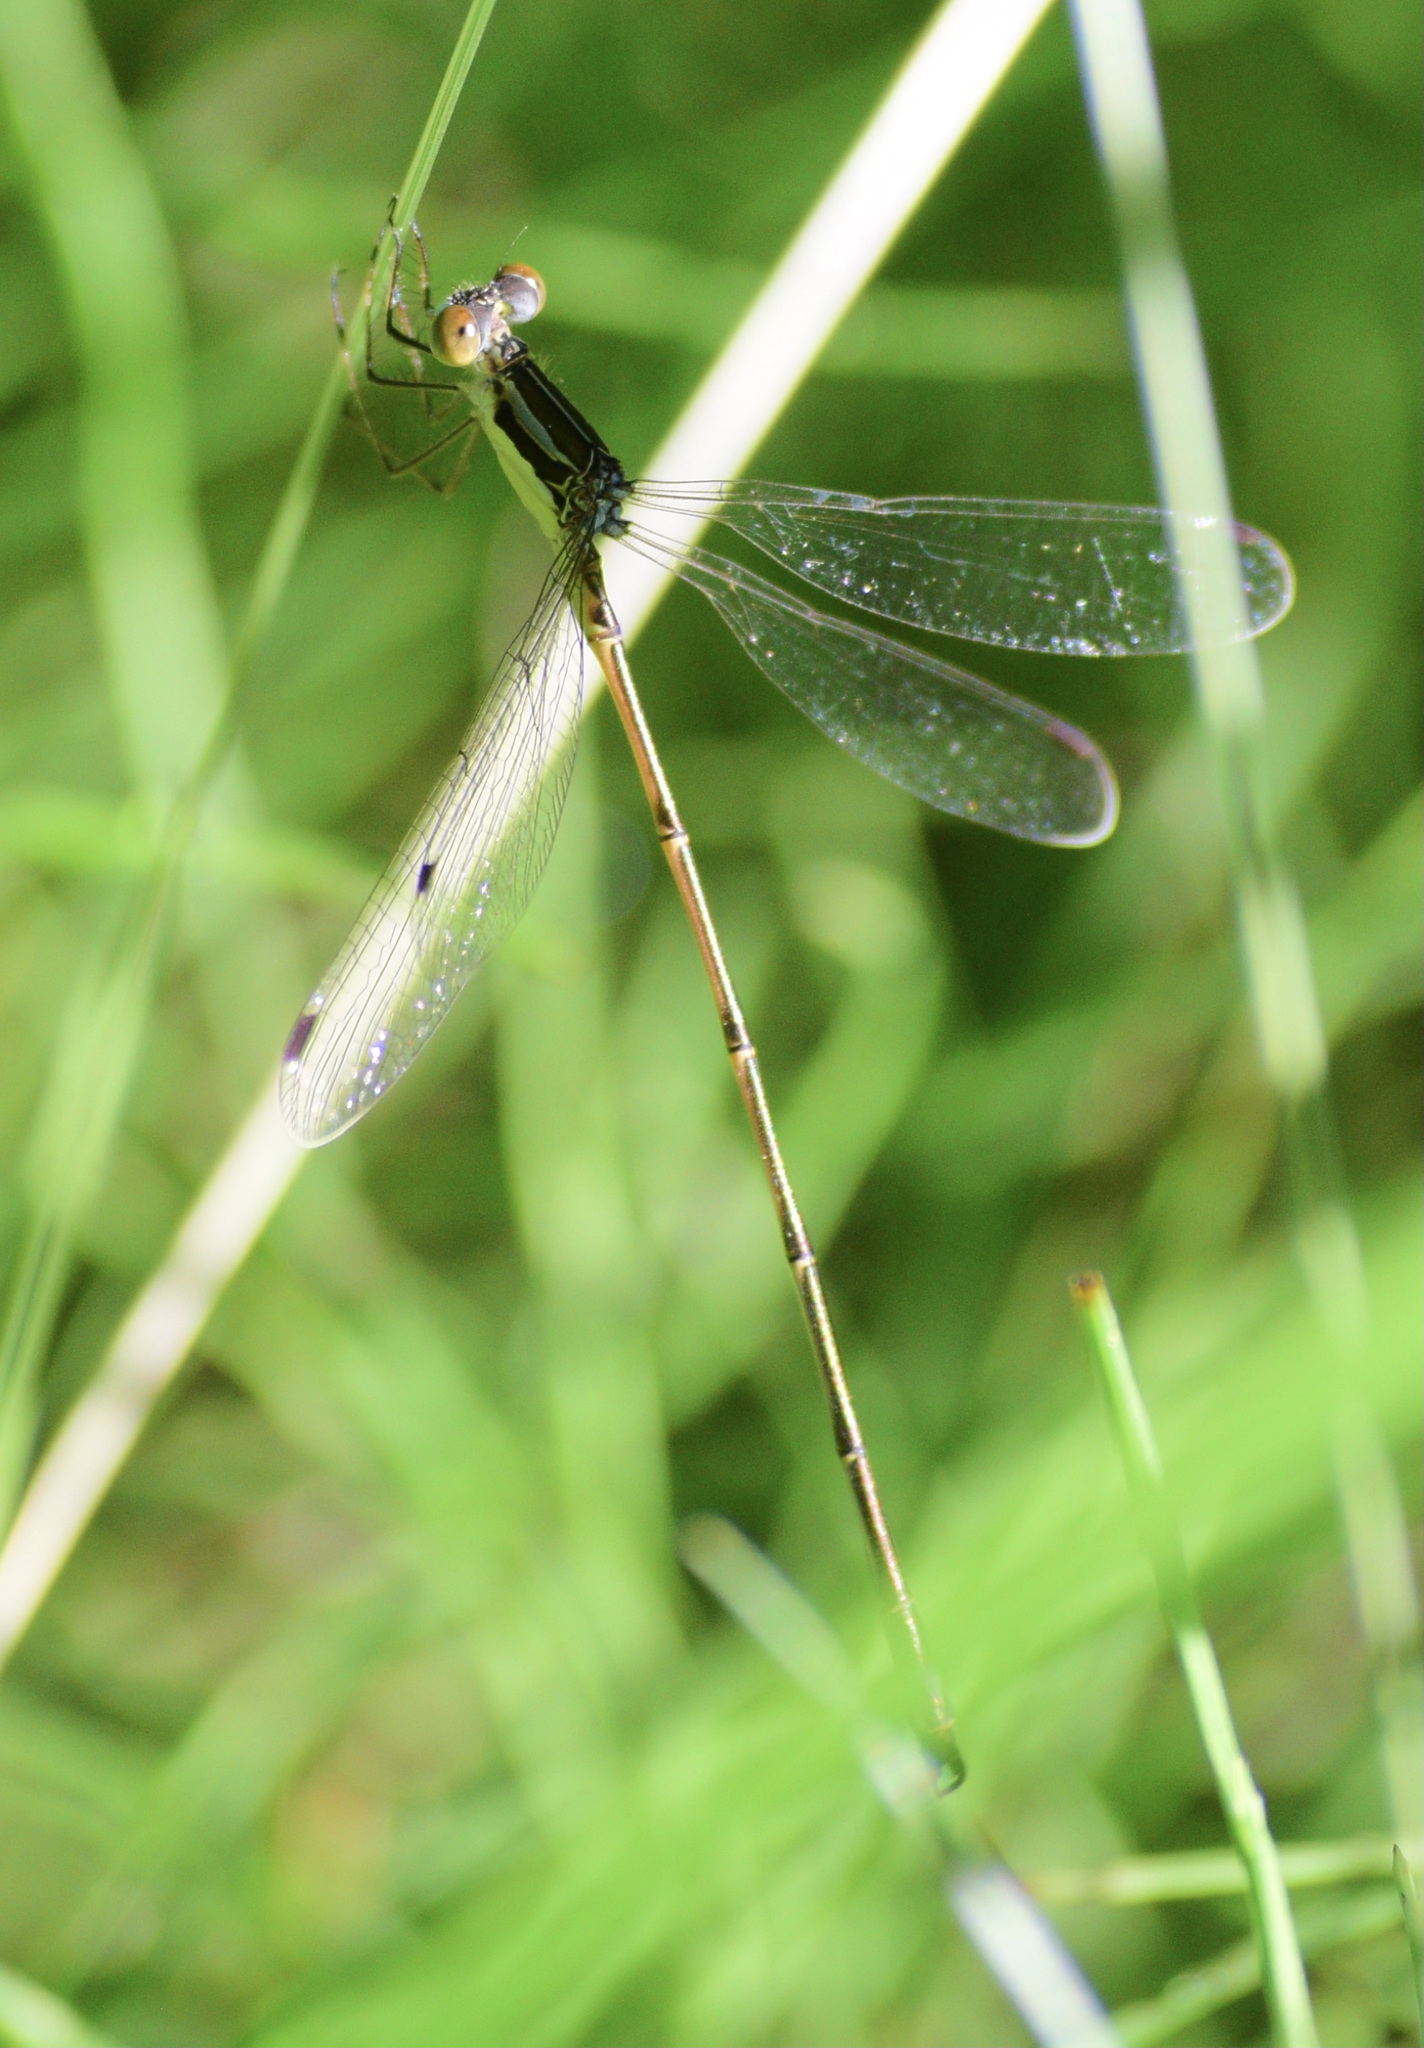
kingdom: Animalia
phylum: Arthropoda
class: Insecta
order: Odonata
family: Lestidae
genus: Lestes
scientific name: Lestes rectangularis
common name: Slender spreadwing
